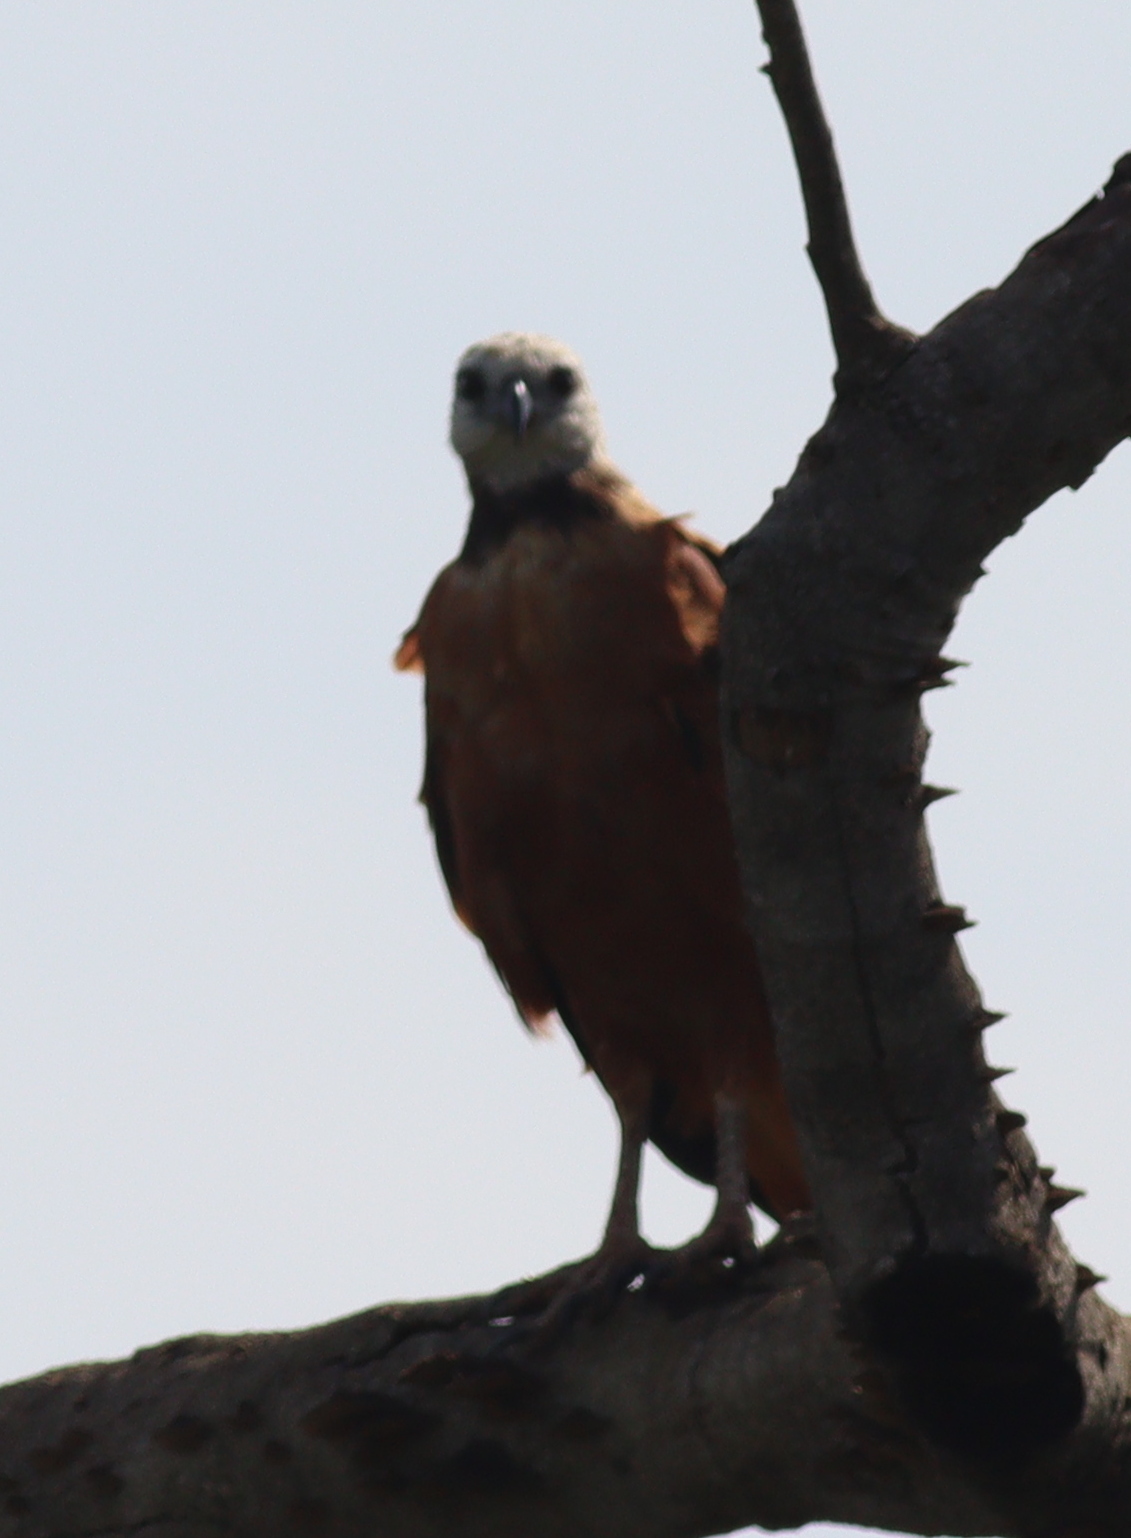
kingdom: Animalia
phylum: Chordata
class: Aves
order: Accipitriformes
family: Accipitridae
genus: Busarellus
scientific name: Busarellus nigricollis
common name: Black-collared hawk
